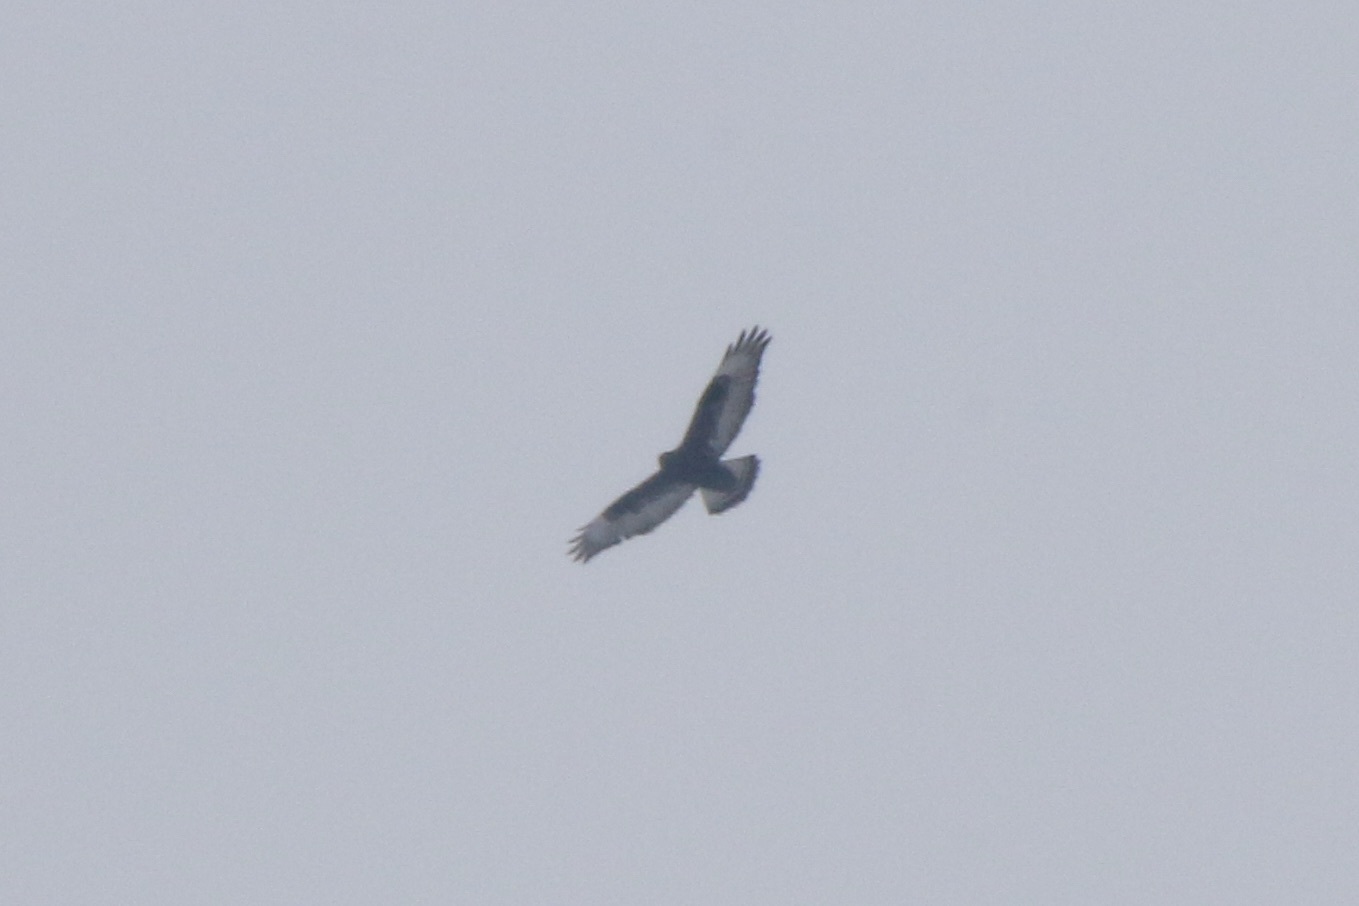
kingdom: Animalia
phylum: Chordata
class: Aves
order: Accipitriformes
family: Accipitridae
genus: Buteo
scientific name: Buteo lagopus
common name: Rough-legged buzzard
